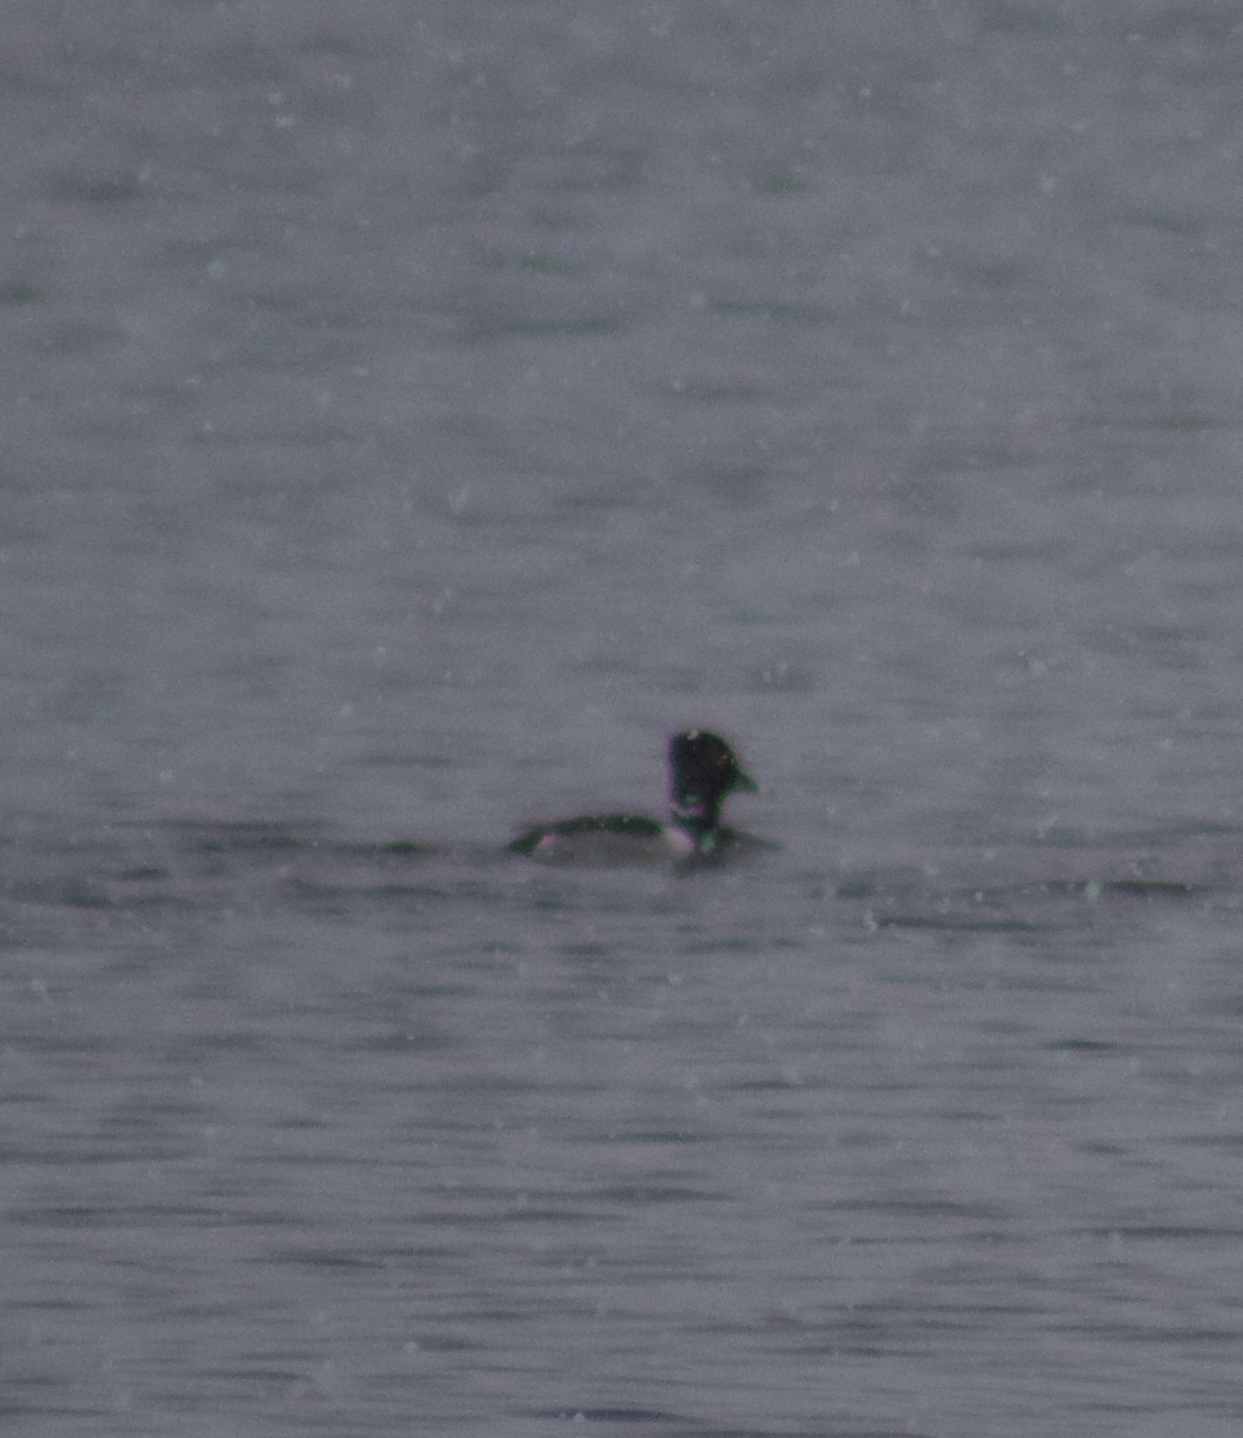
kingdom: Animalia
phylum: Chordata
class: Aves
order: Anseriformes
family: Anatidae
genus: Aythya
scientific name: Aythya collaris
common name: Ring-necked duck
